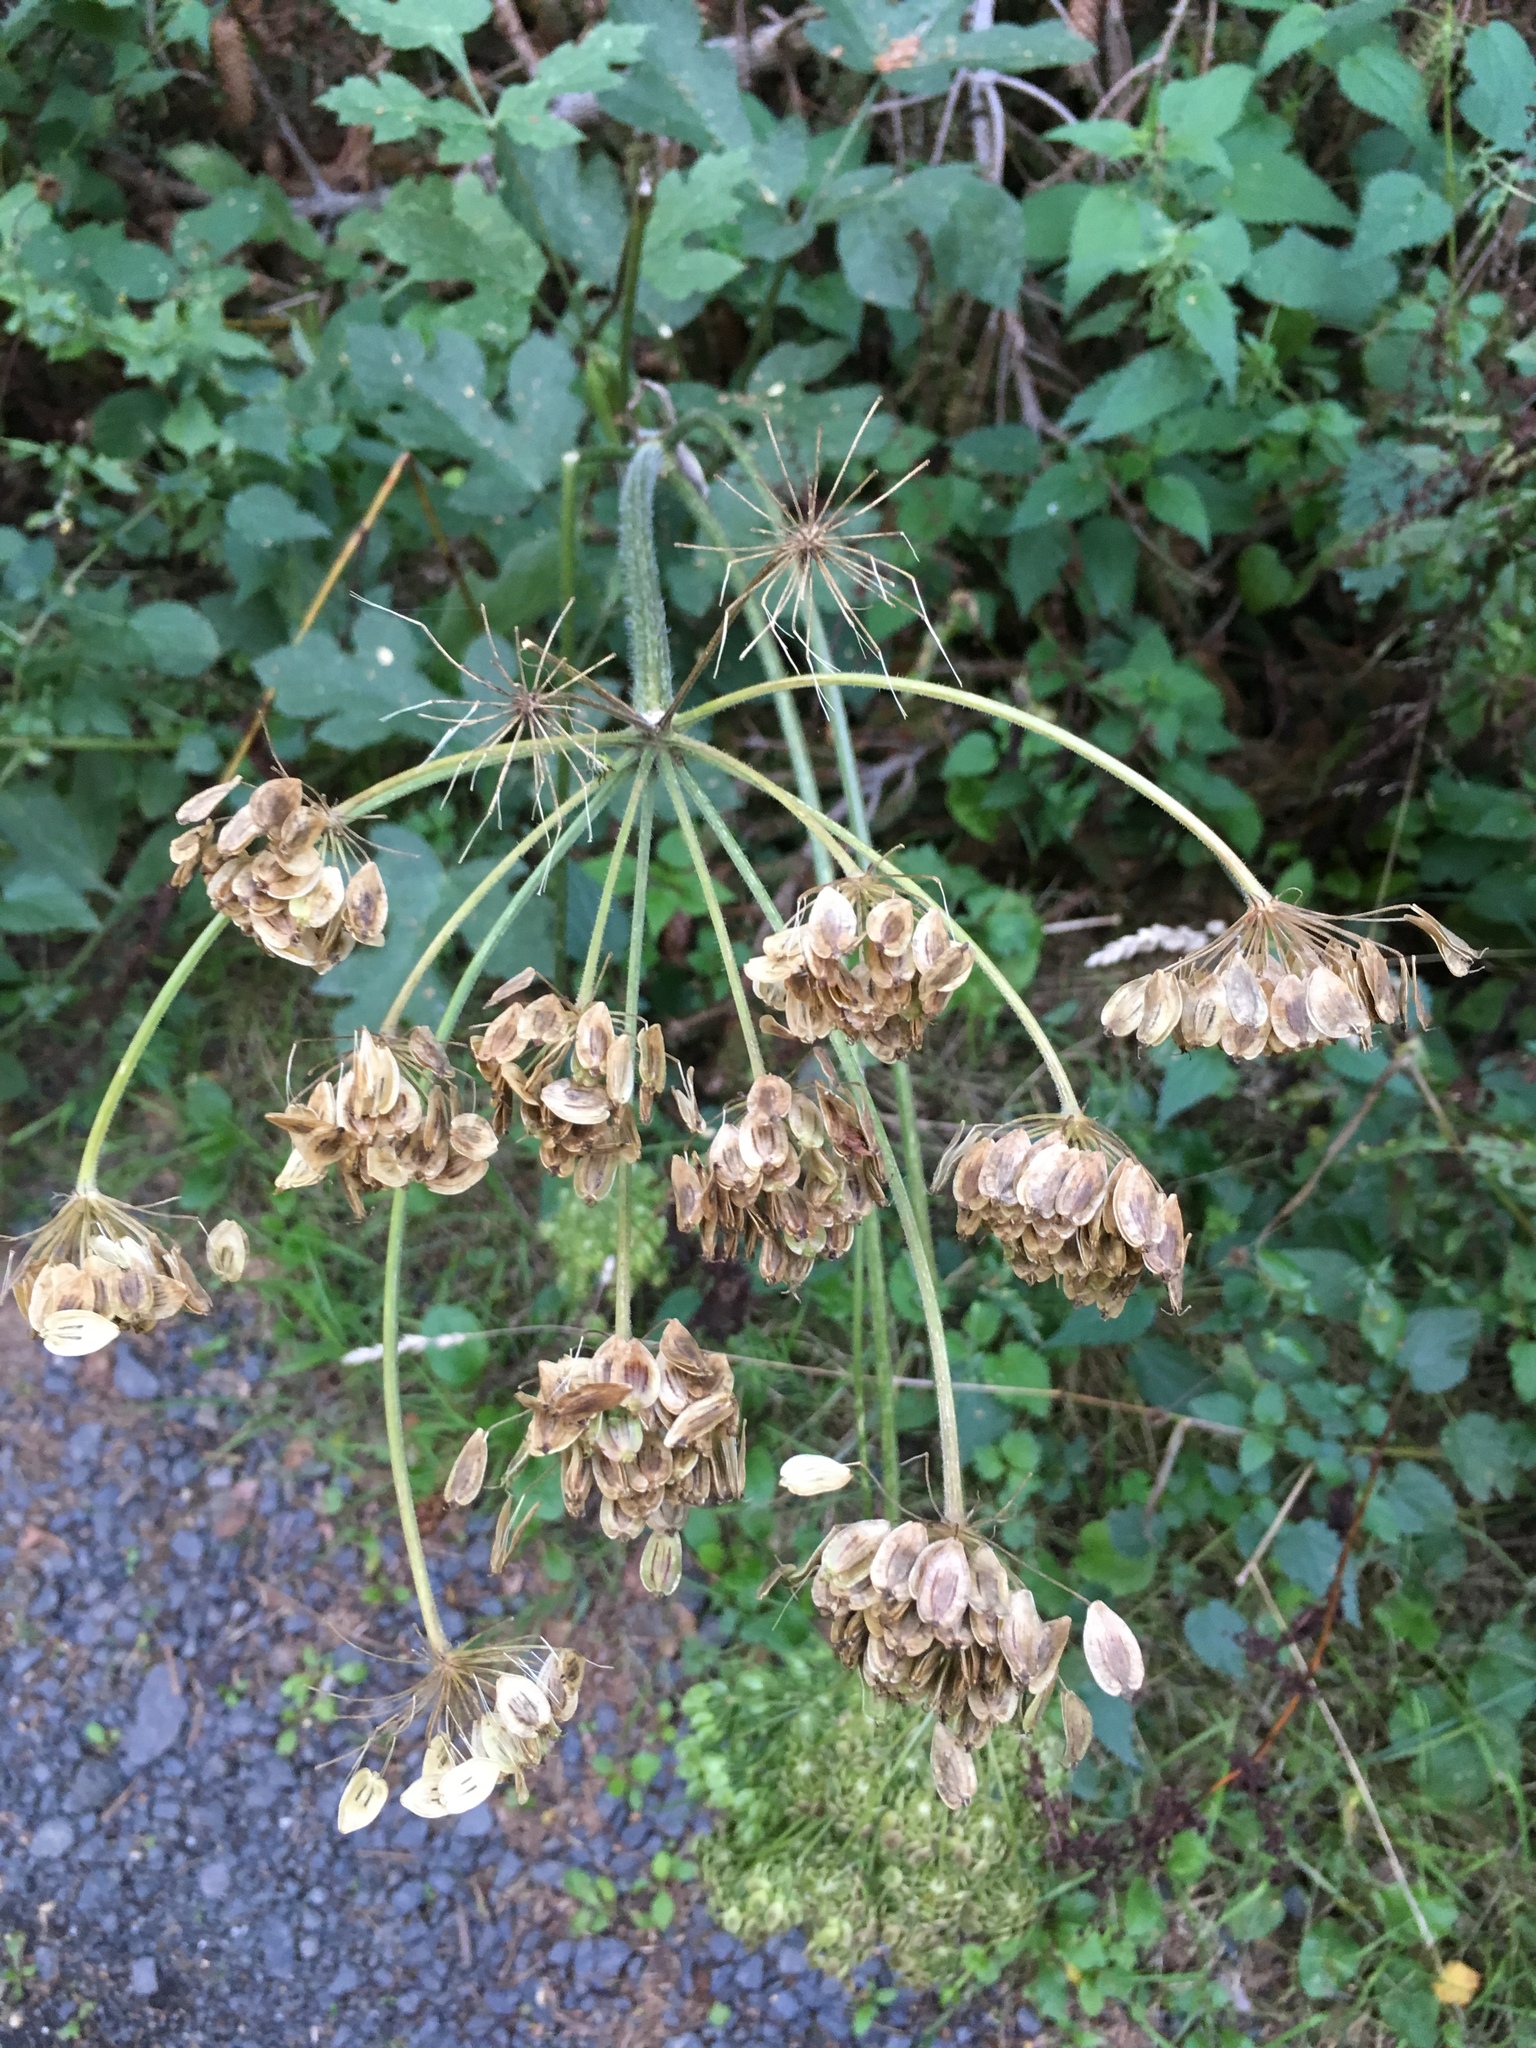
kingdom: Plantae
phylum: Tracheophyta
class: Magnoliopsida
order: Apiales
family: Apiaceae
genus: Heracleum
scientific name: Heracleum sphondylium
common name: Hogweed
